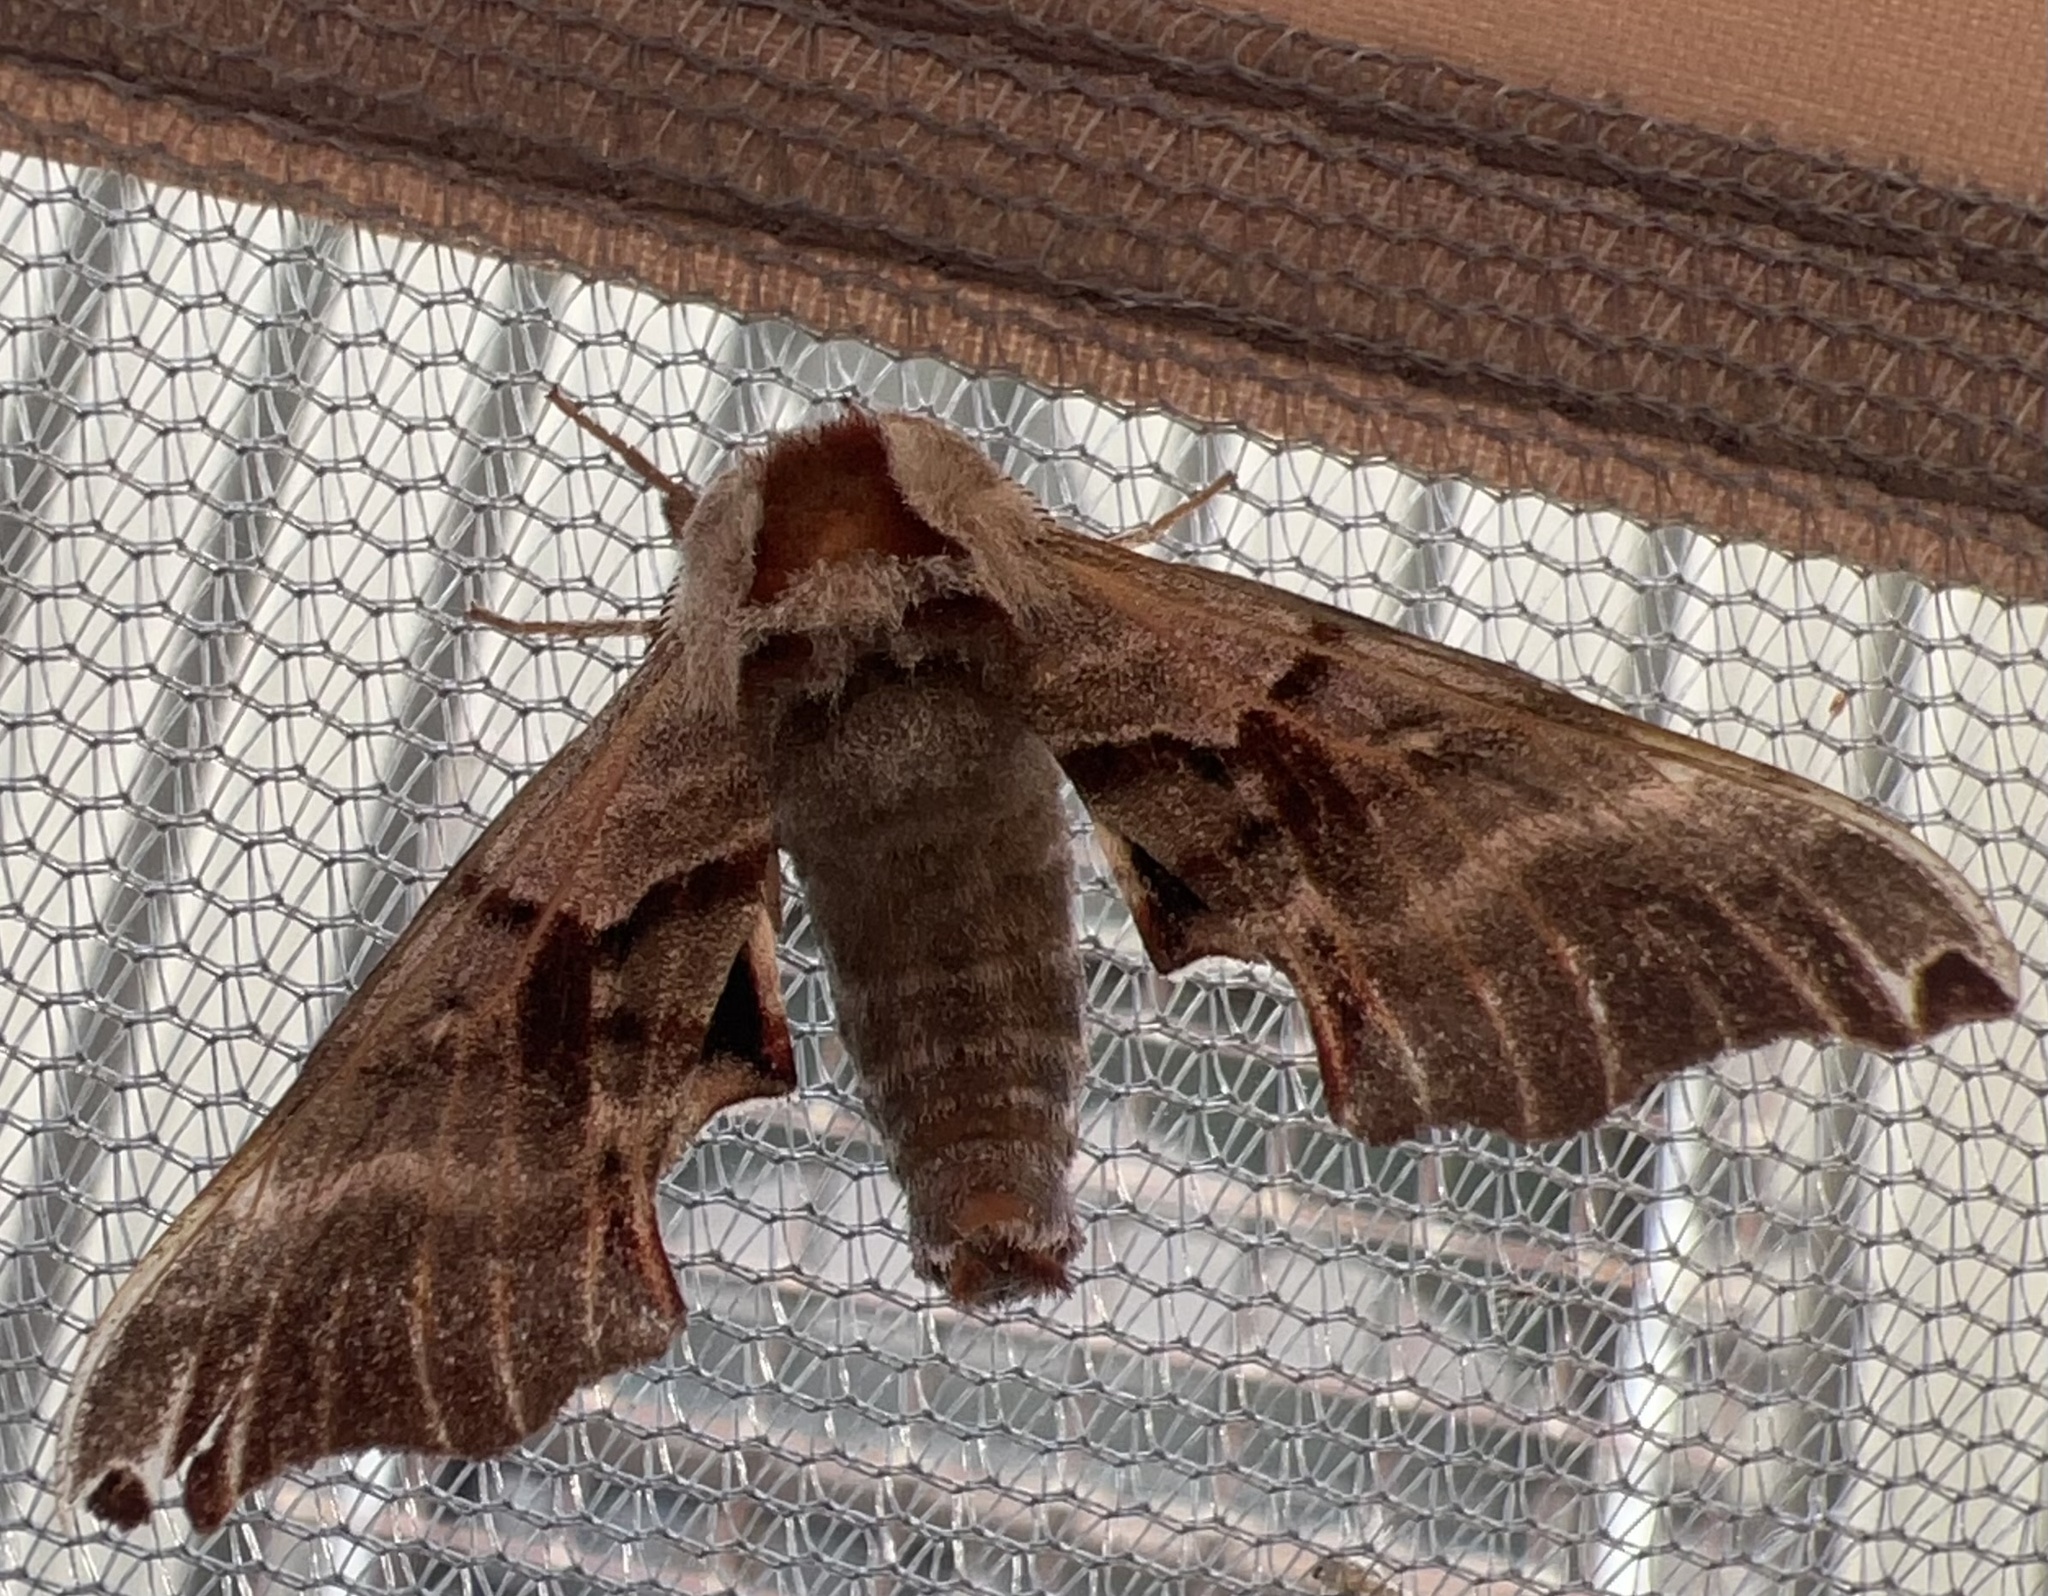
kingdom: Animalia
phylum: Arthropoda
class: Insecta
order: Lepidoptera
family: Sphingidae
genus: Smerinthus
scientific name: Smerinthus jamaicensis
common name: Twin spotted sphinx
